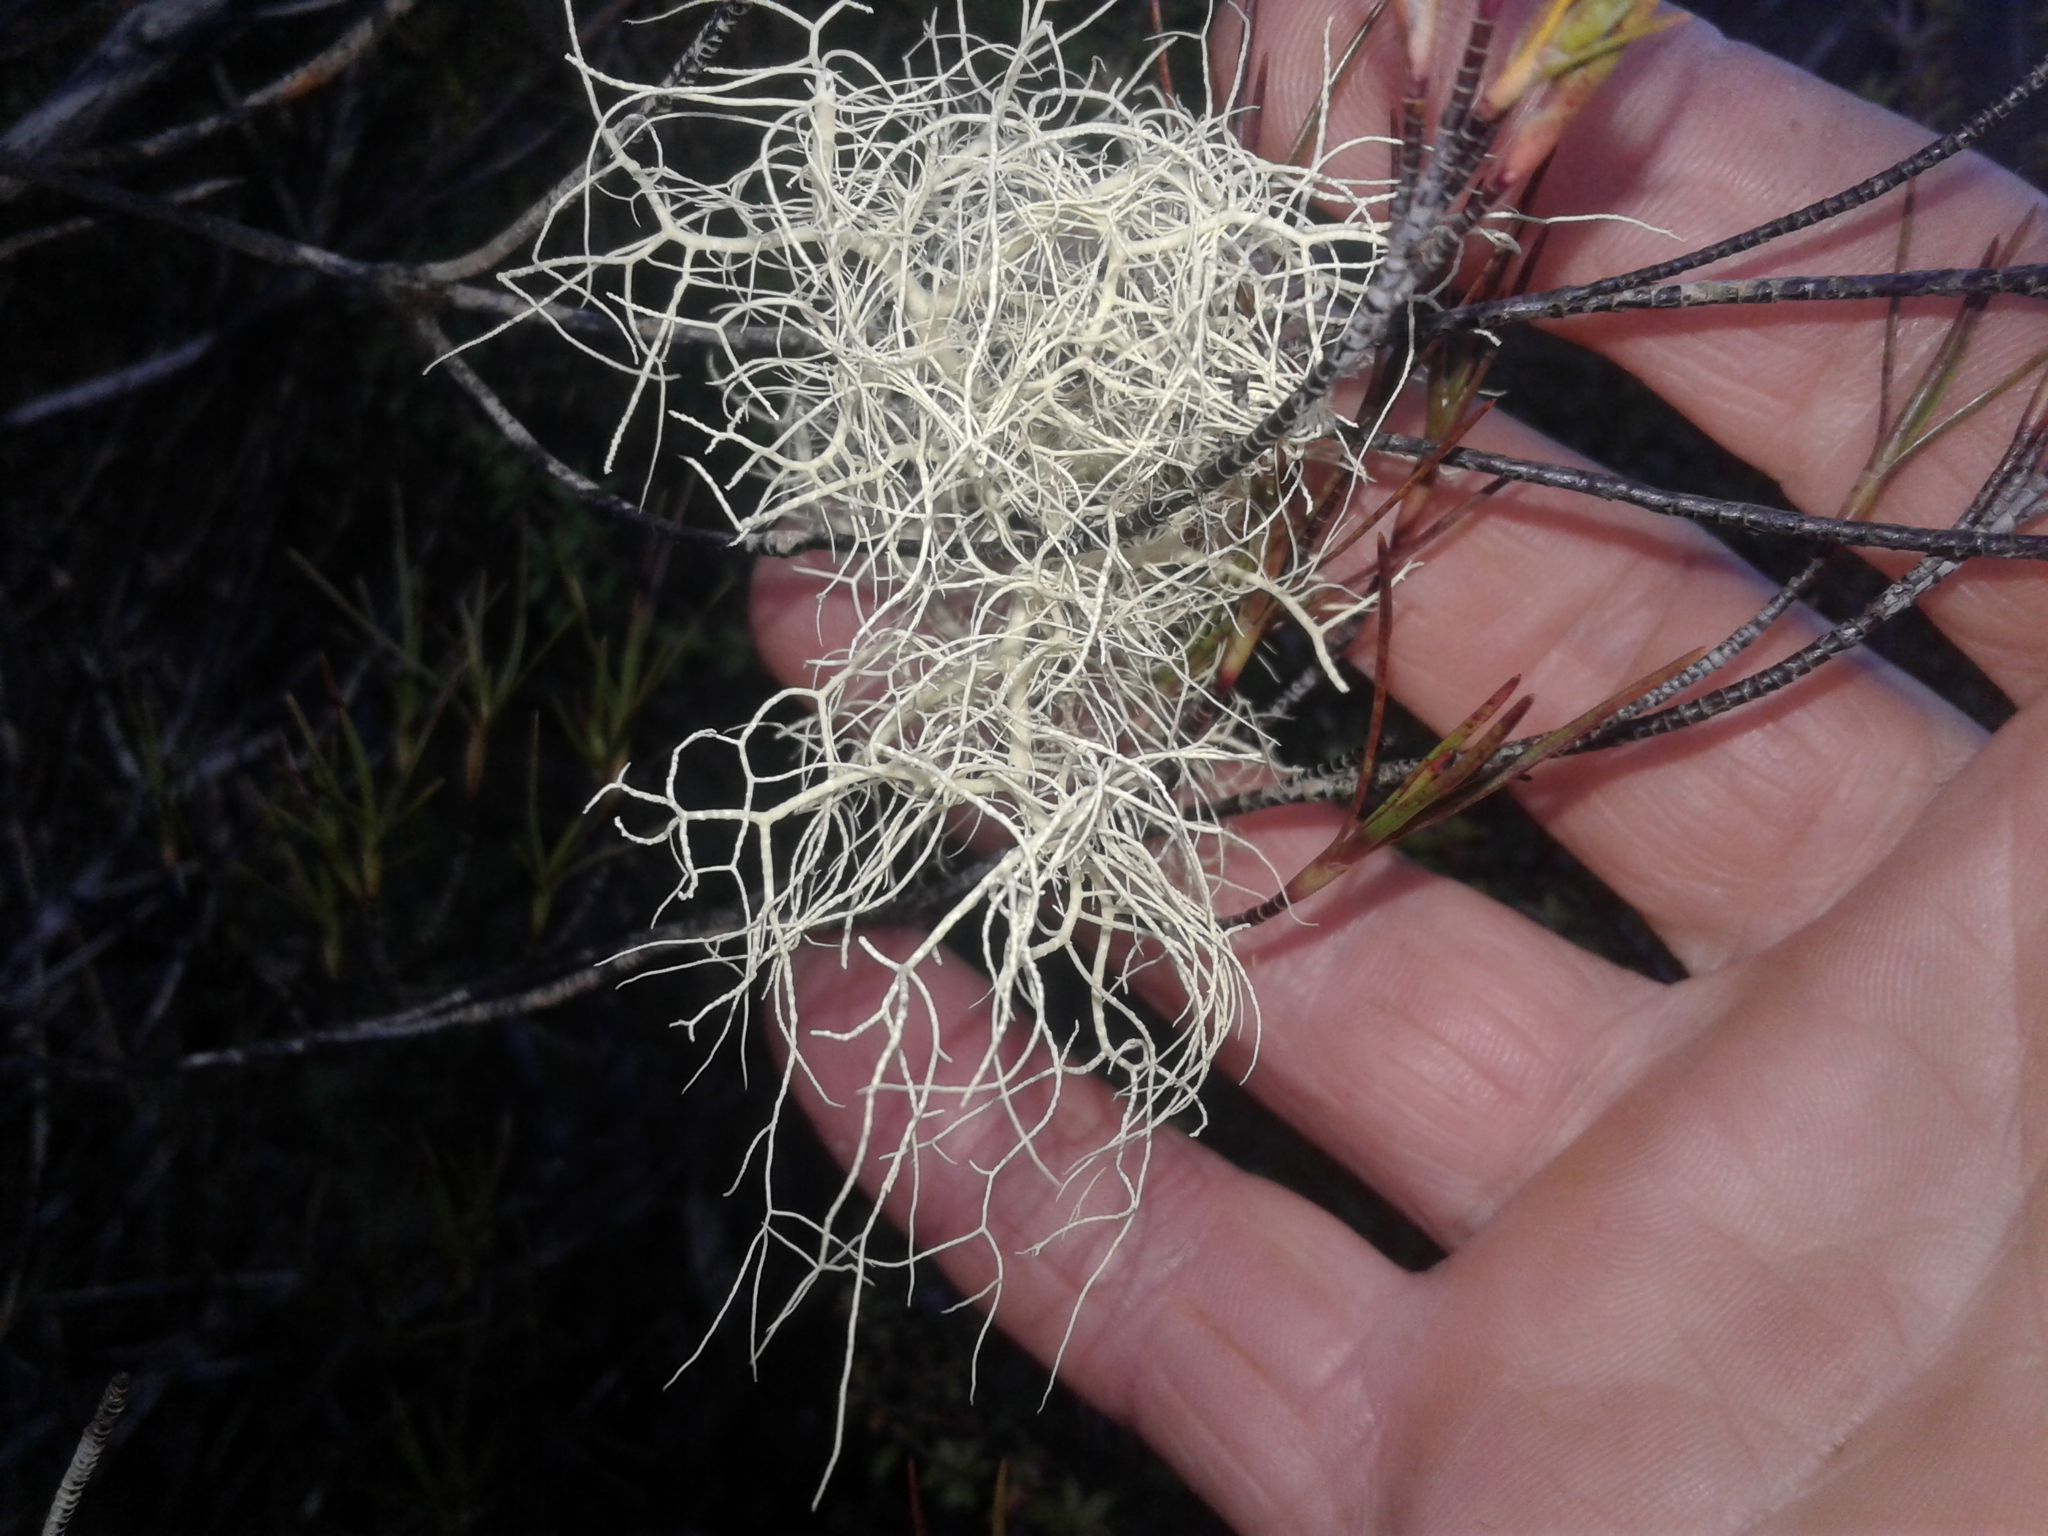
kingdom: Fungi
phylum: Ascomycota
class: Lecanoromycetes
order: Lecanorales
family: Parmeliaceae
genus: Usnea
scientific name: Usnea
